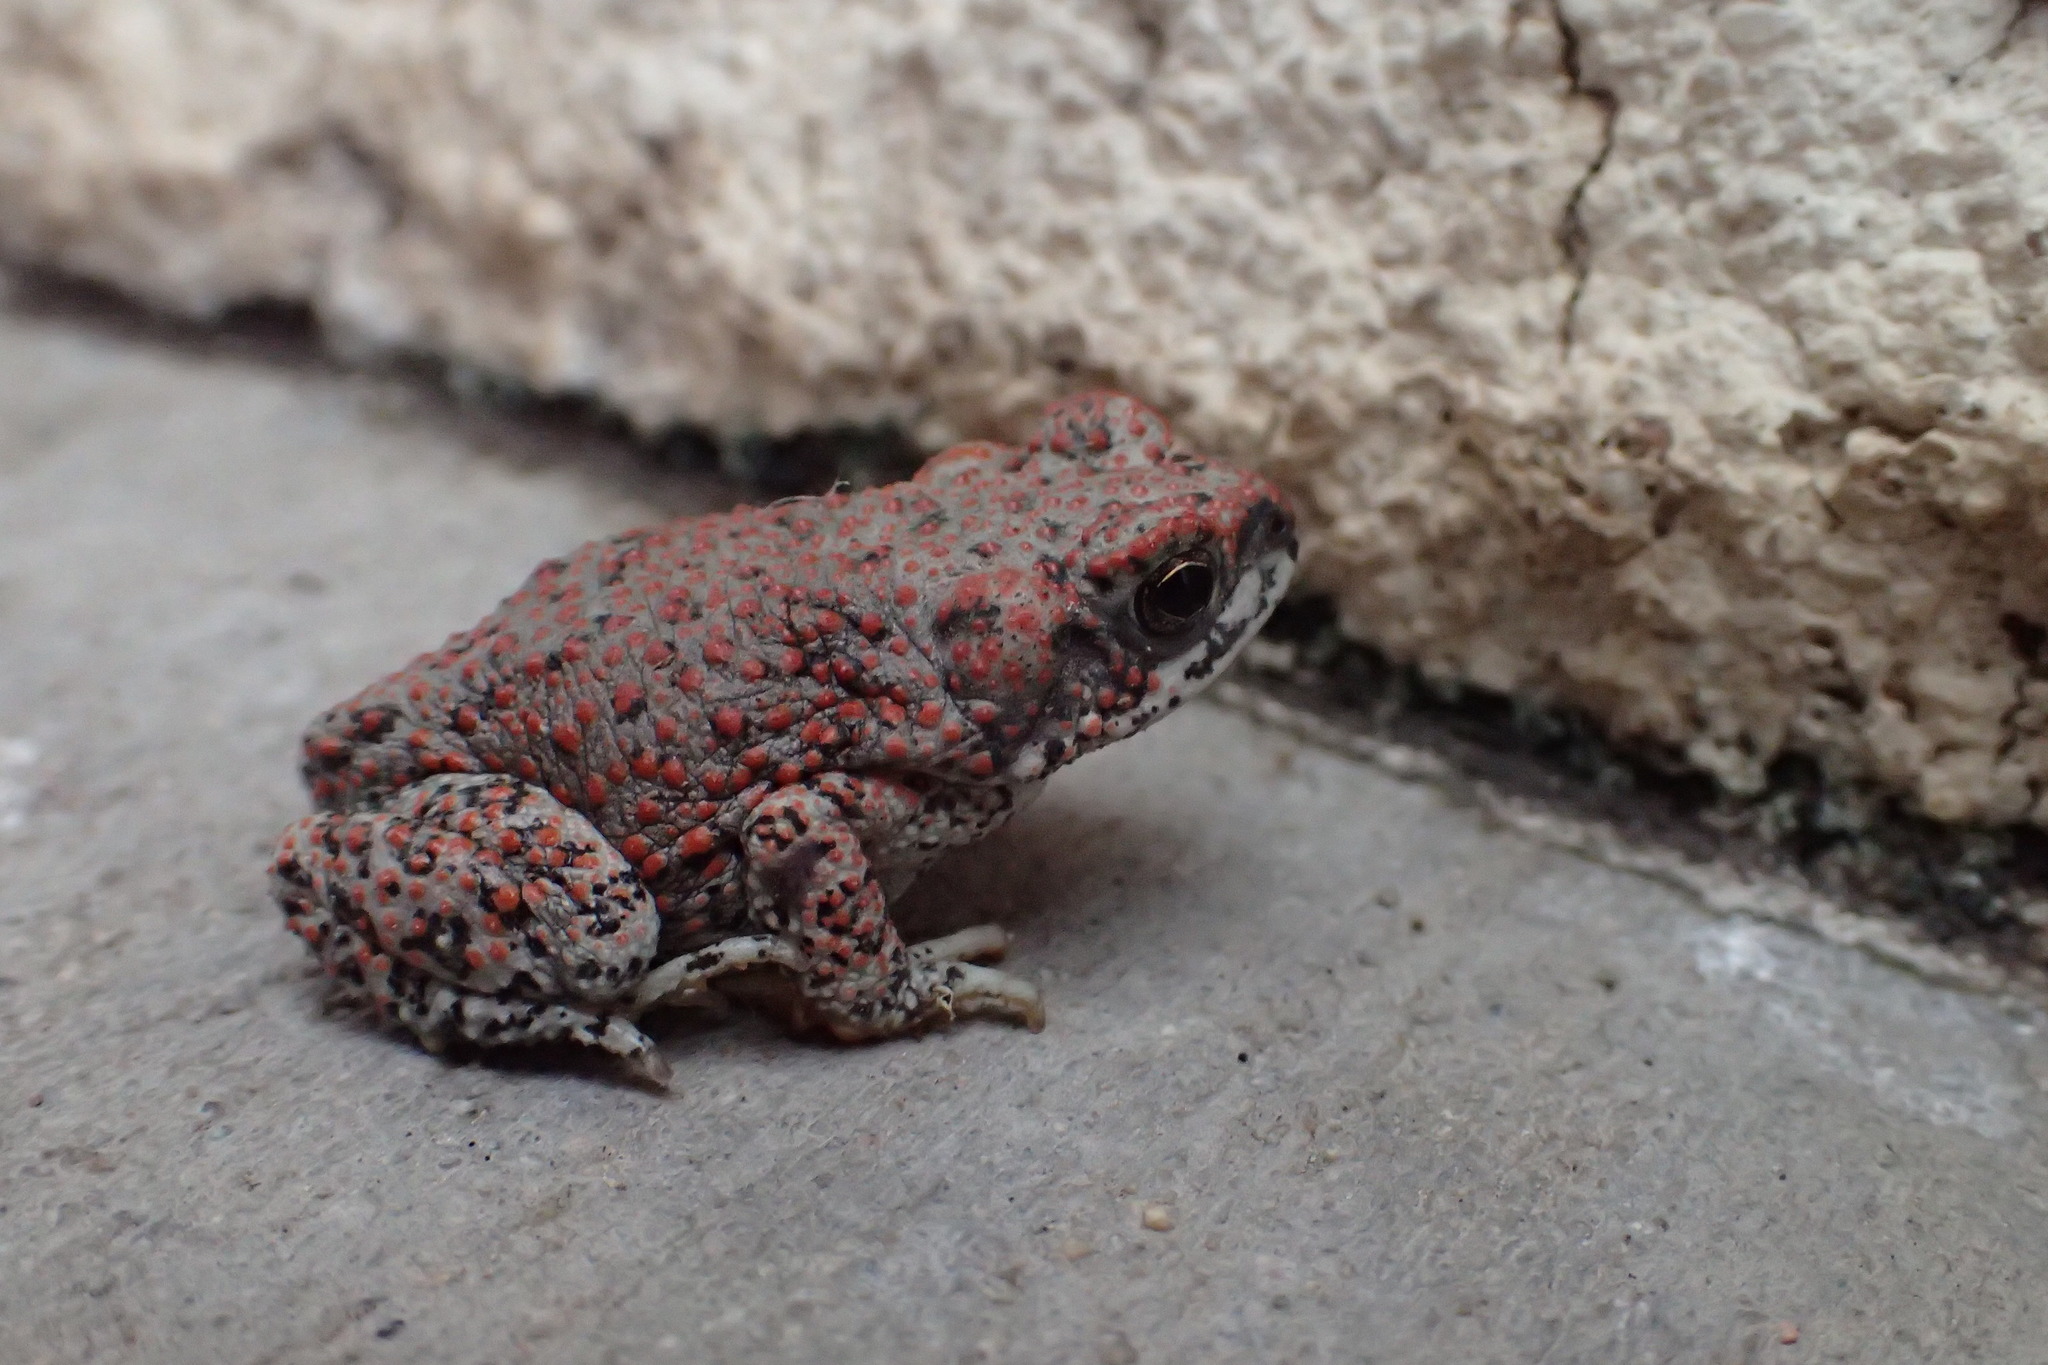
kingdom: Animalia
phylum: Chordata
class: Amphibia
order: Anura
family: Bufonidae
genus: Anaxyrus
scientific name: Anaxyrus punctatus
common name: Red-spotted toad
